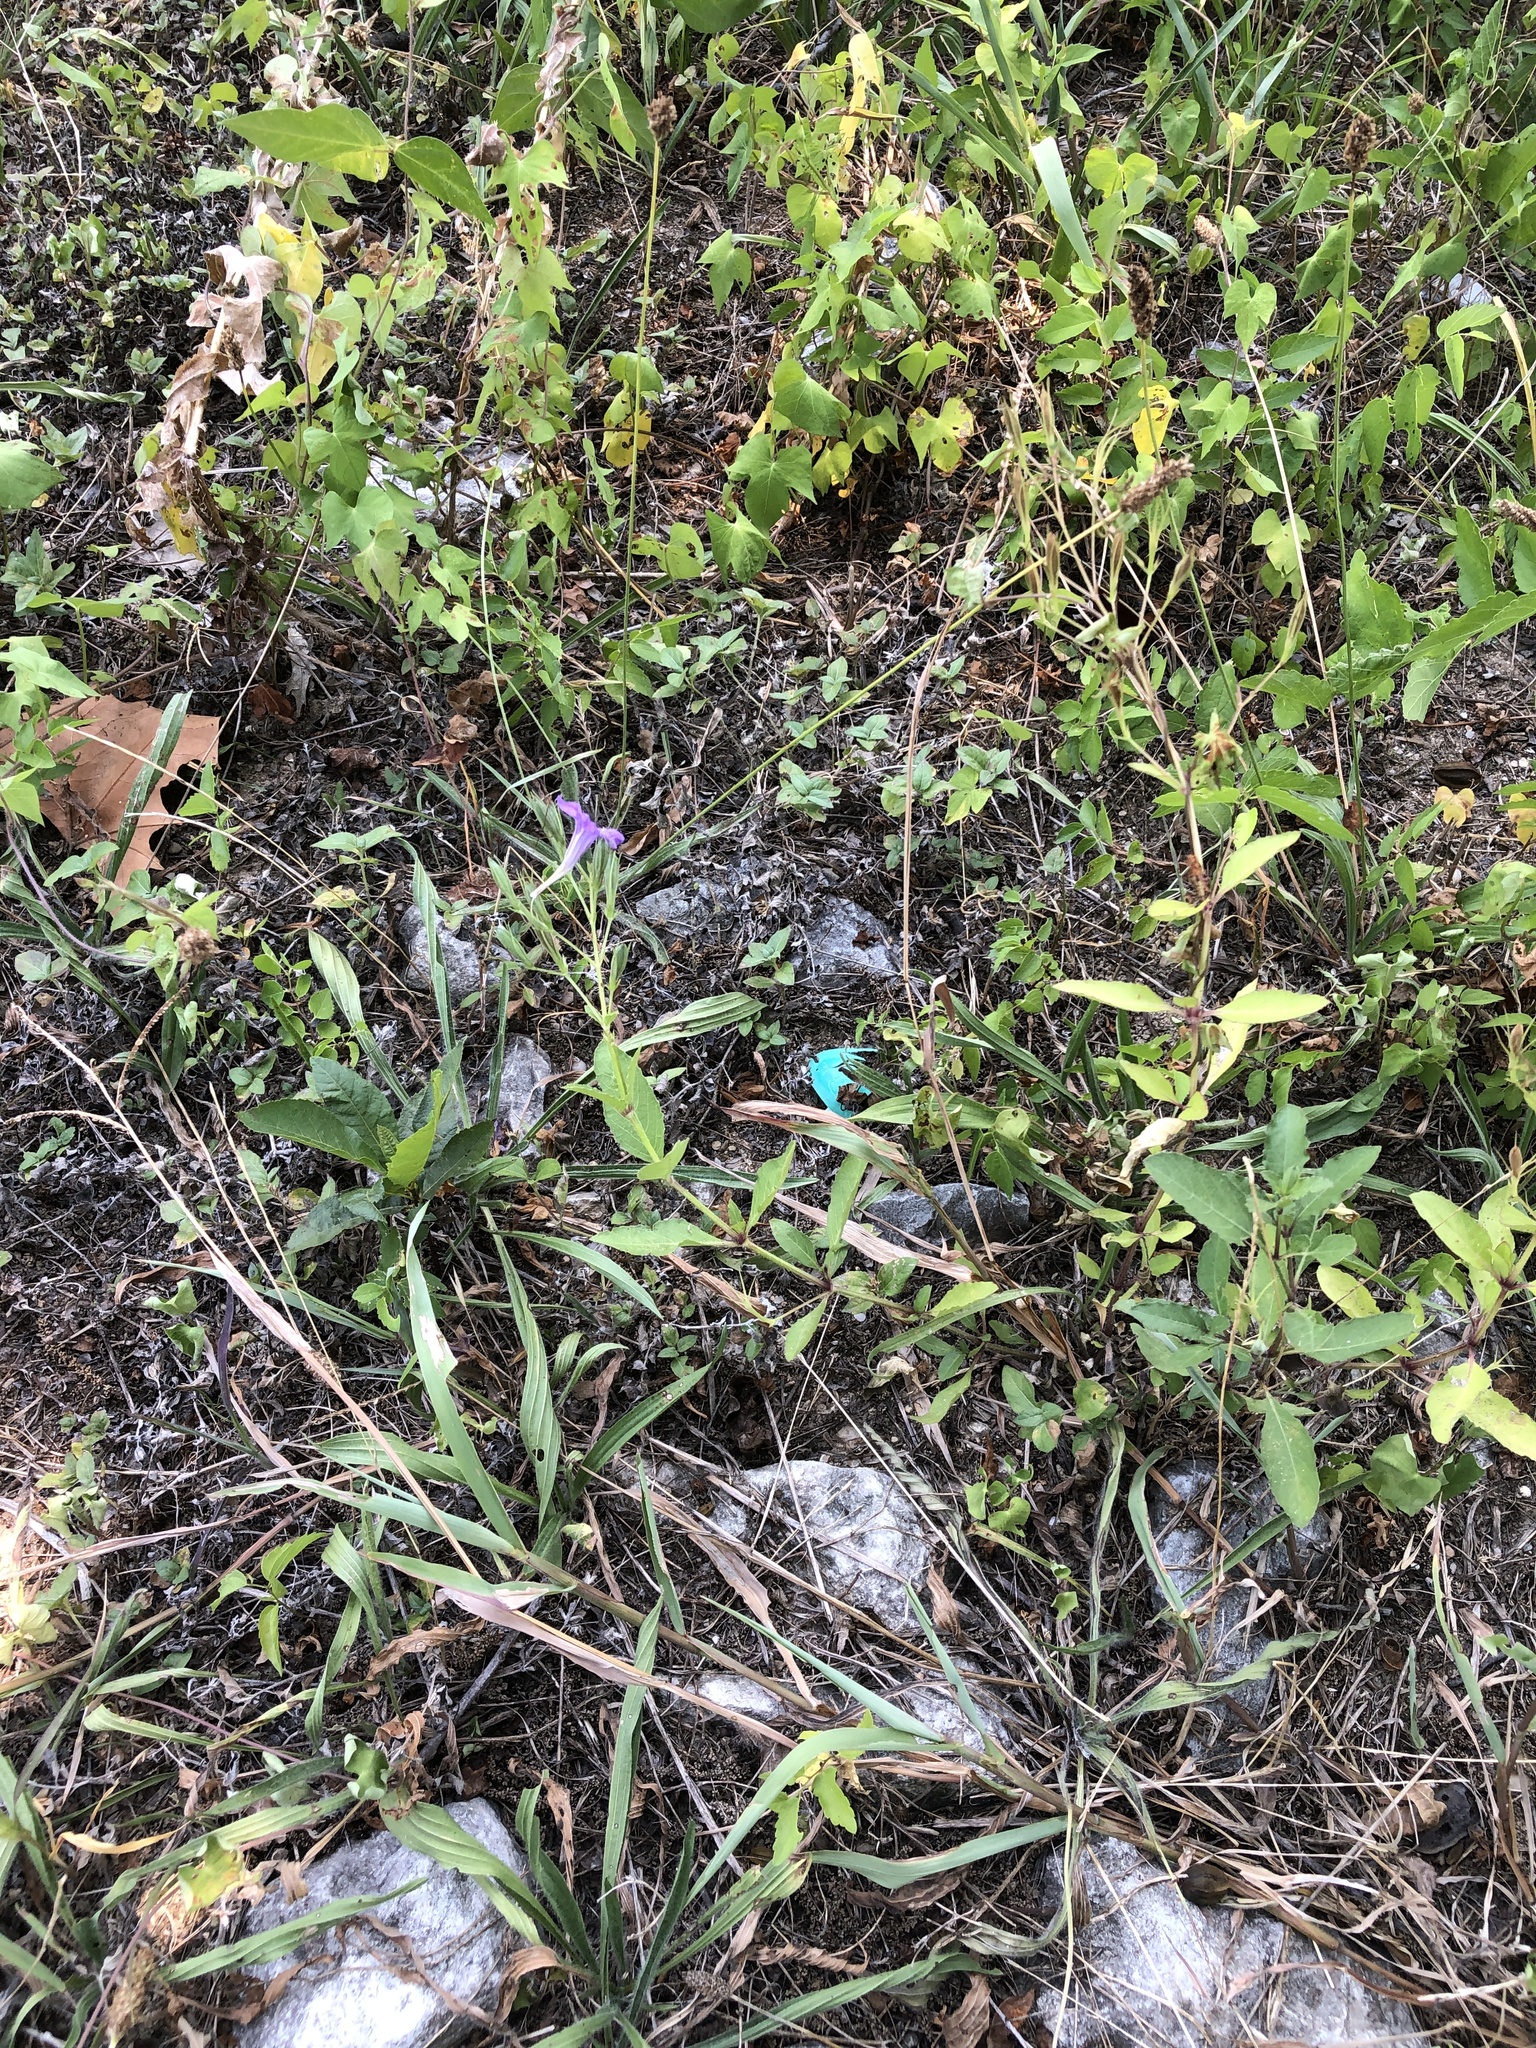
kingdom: Plantae
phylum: Tracheophyta
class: Magnoliopsida
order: Lamiales
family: Acanthaceae
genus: Ruellia
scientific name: Ruellia ciliatiflora
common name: Hairyflower wild petunia
